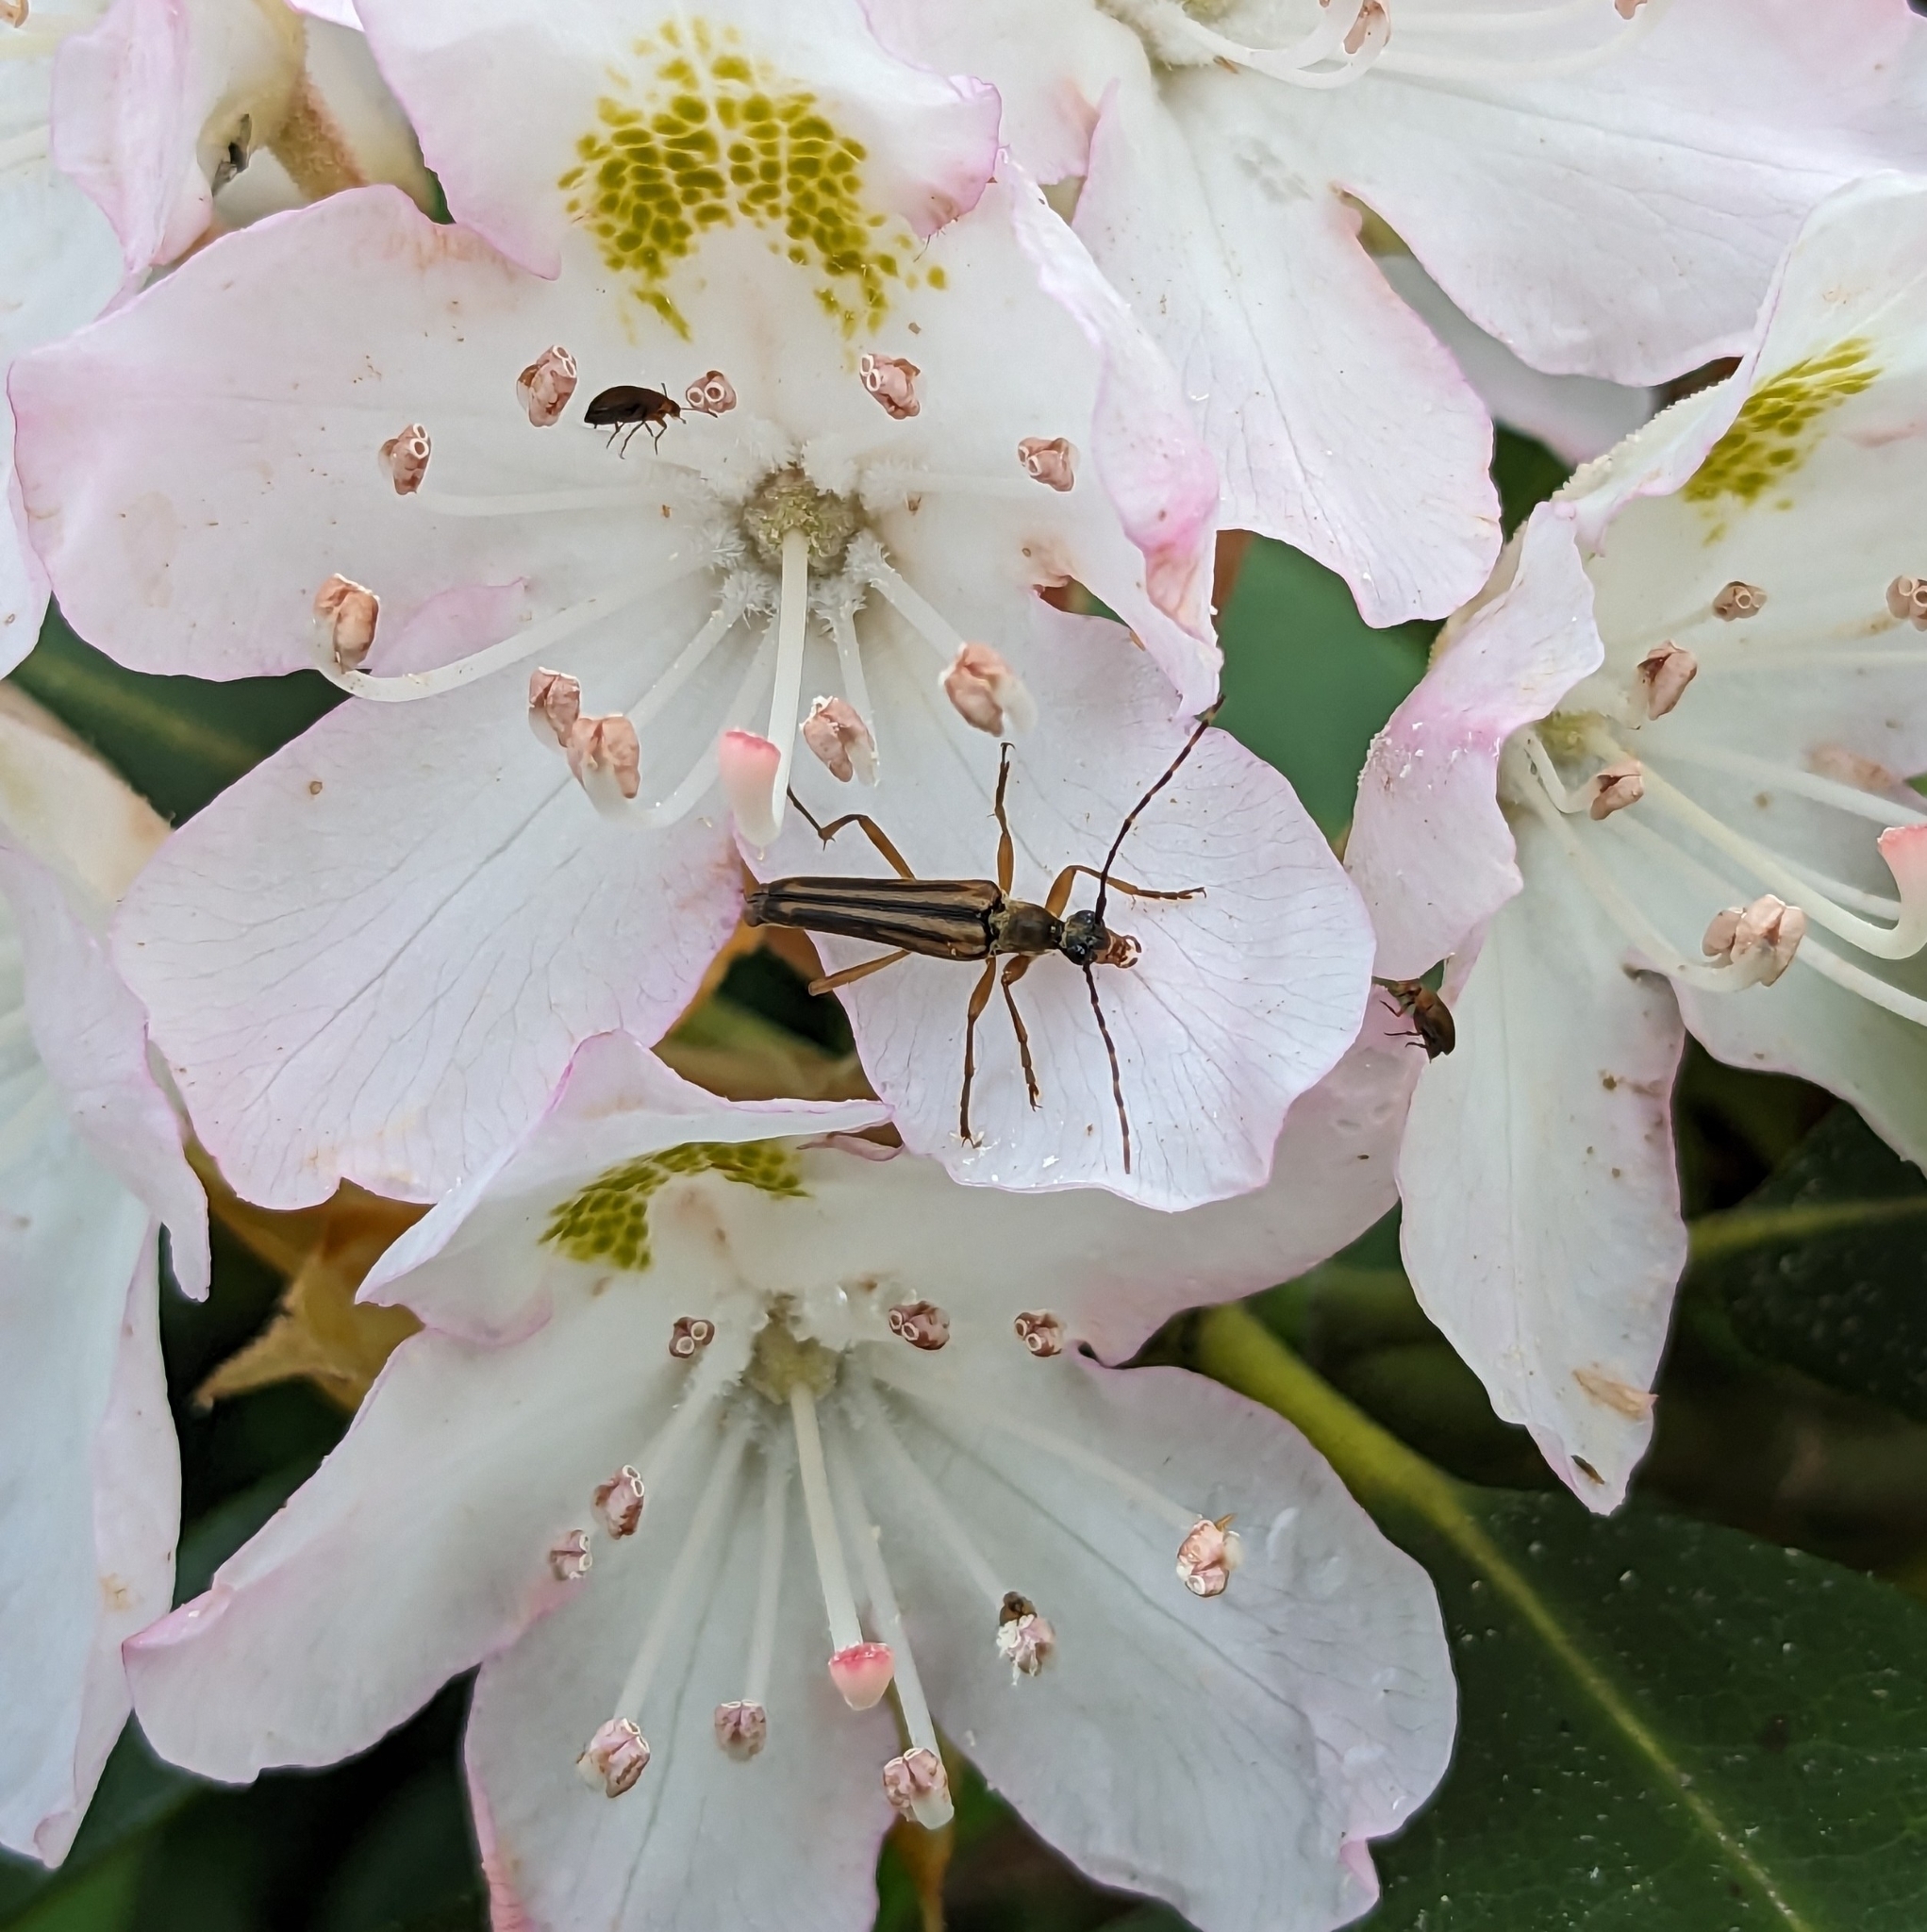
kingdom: Animalia
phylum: Arthropoda
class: Insecta
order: Coleoptera
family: Cerambycidae
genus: Analeptura
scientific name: Analeptura lineola
